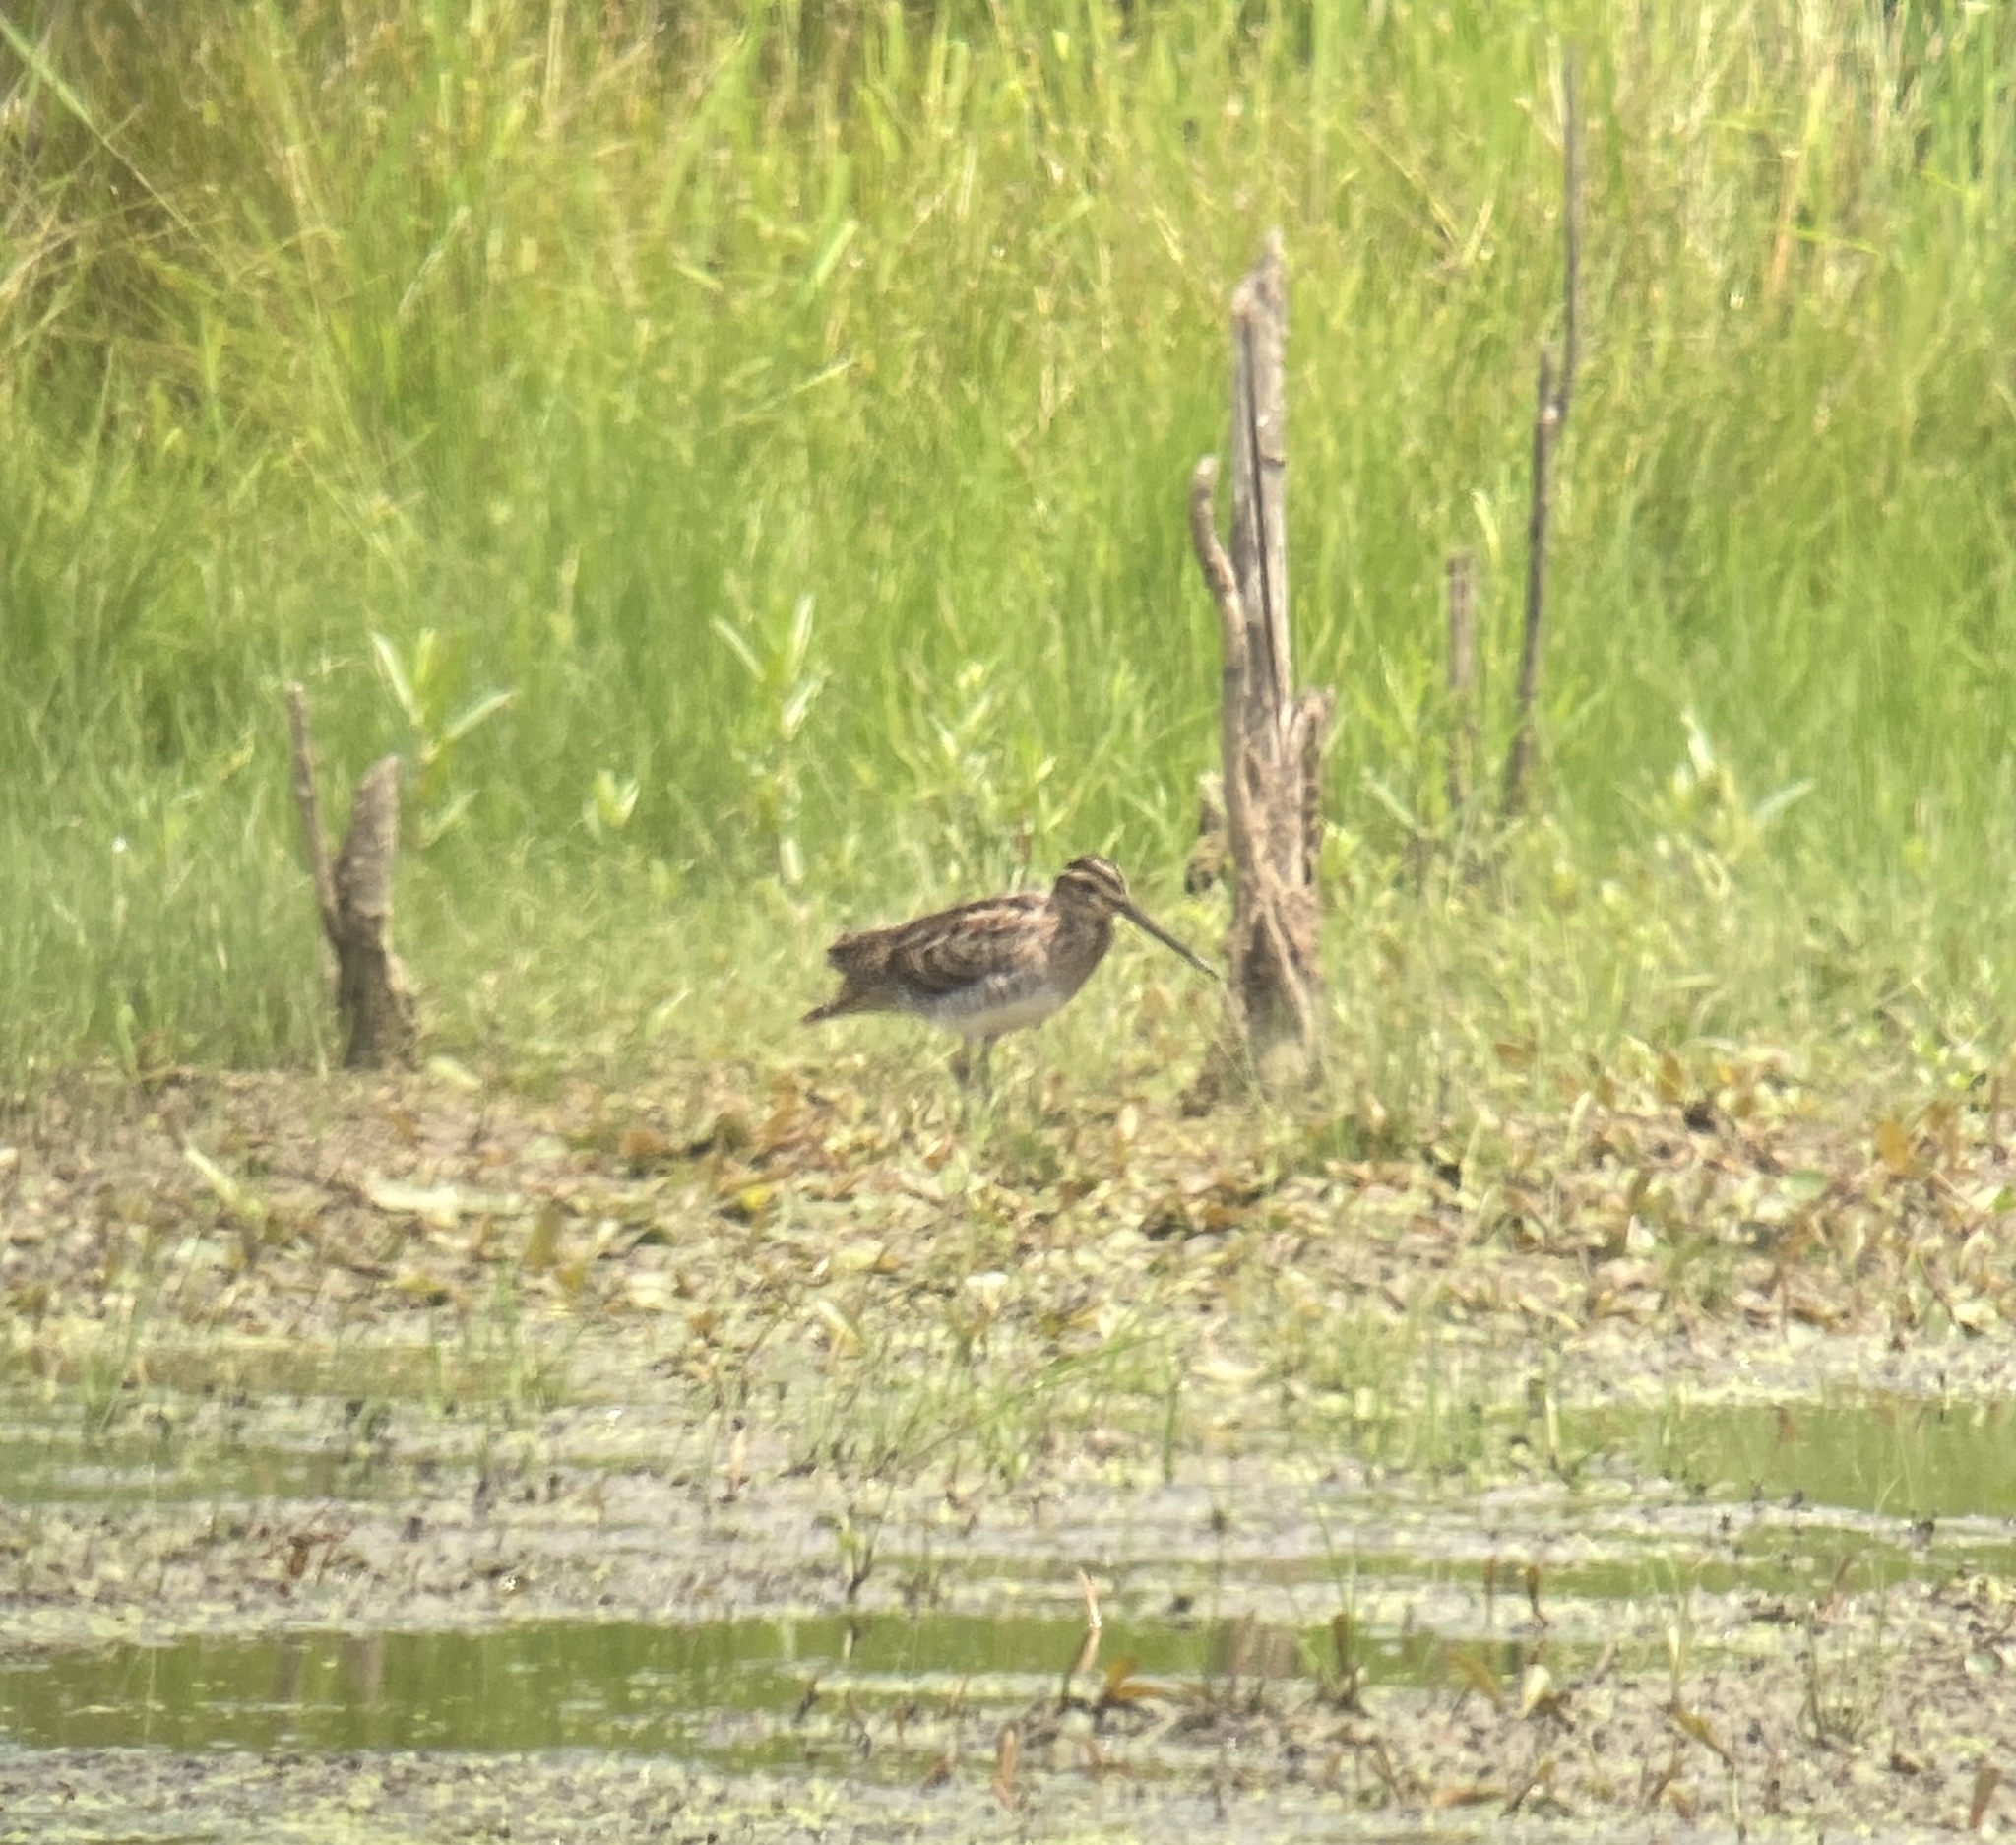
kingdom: Animalia
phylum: Chordata
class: Aves
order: Charadriiformes
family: Scolopacidae
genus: Gallinago
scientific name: Gallinago delicata
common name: Wilson's snipe
